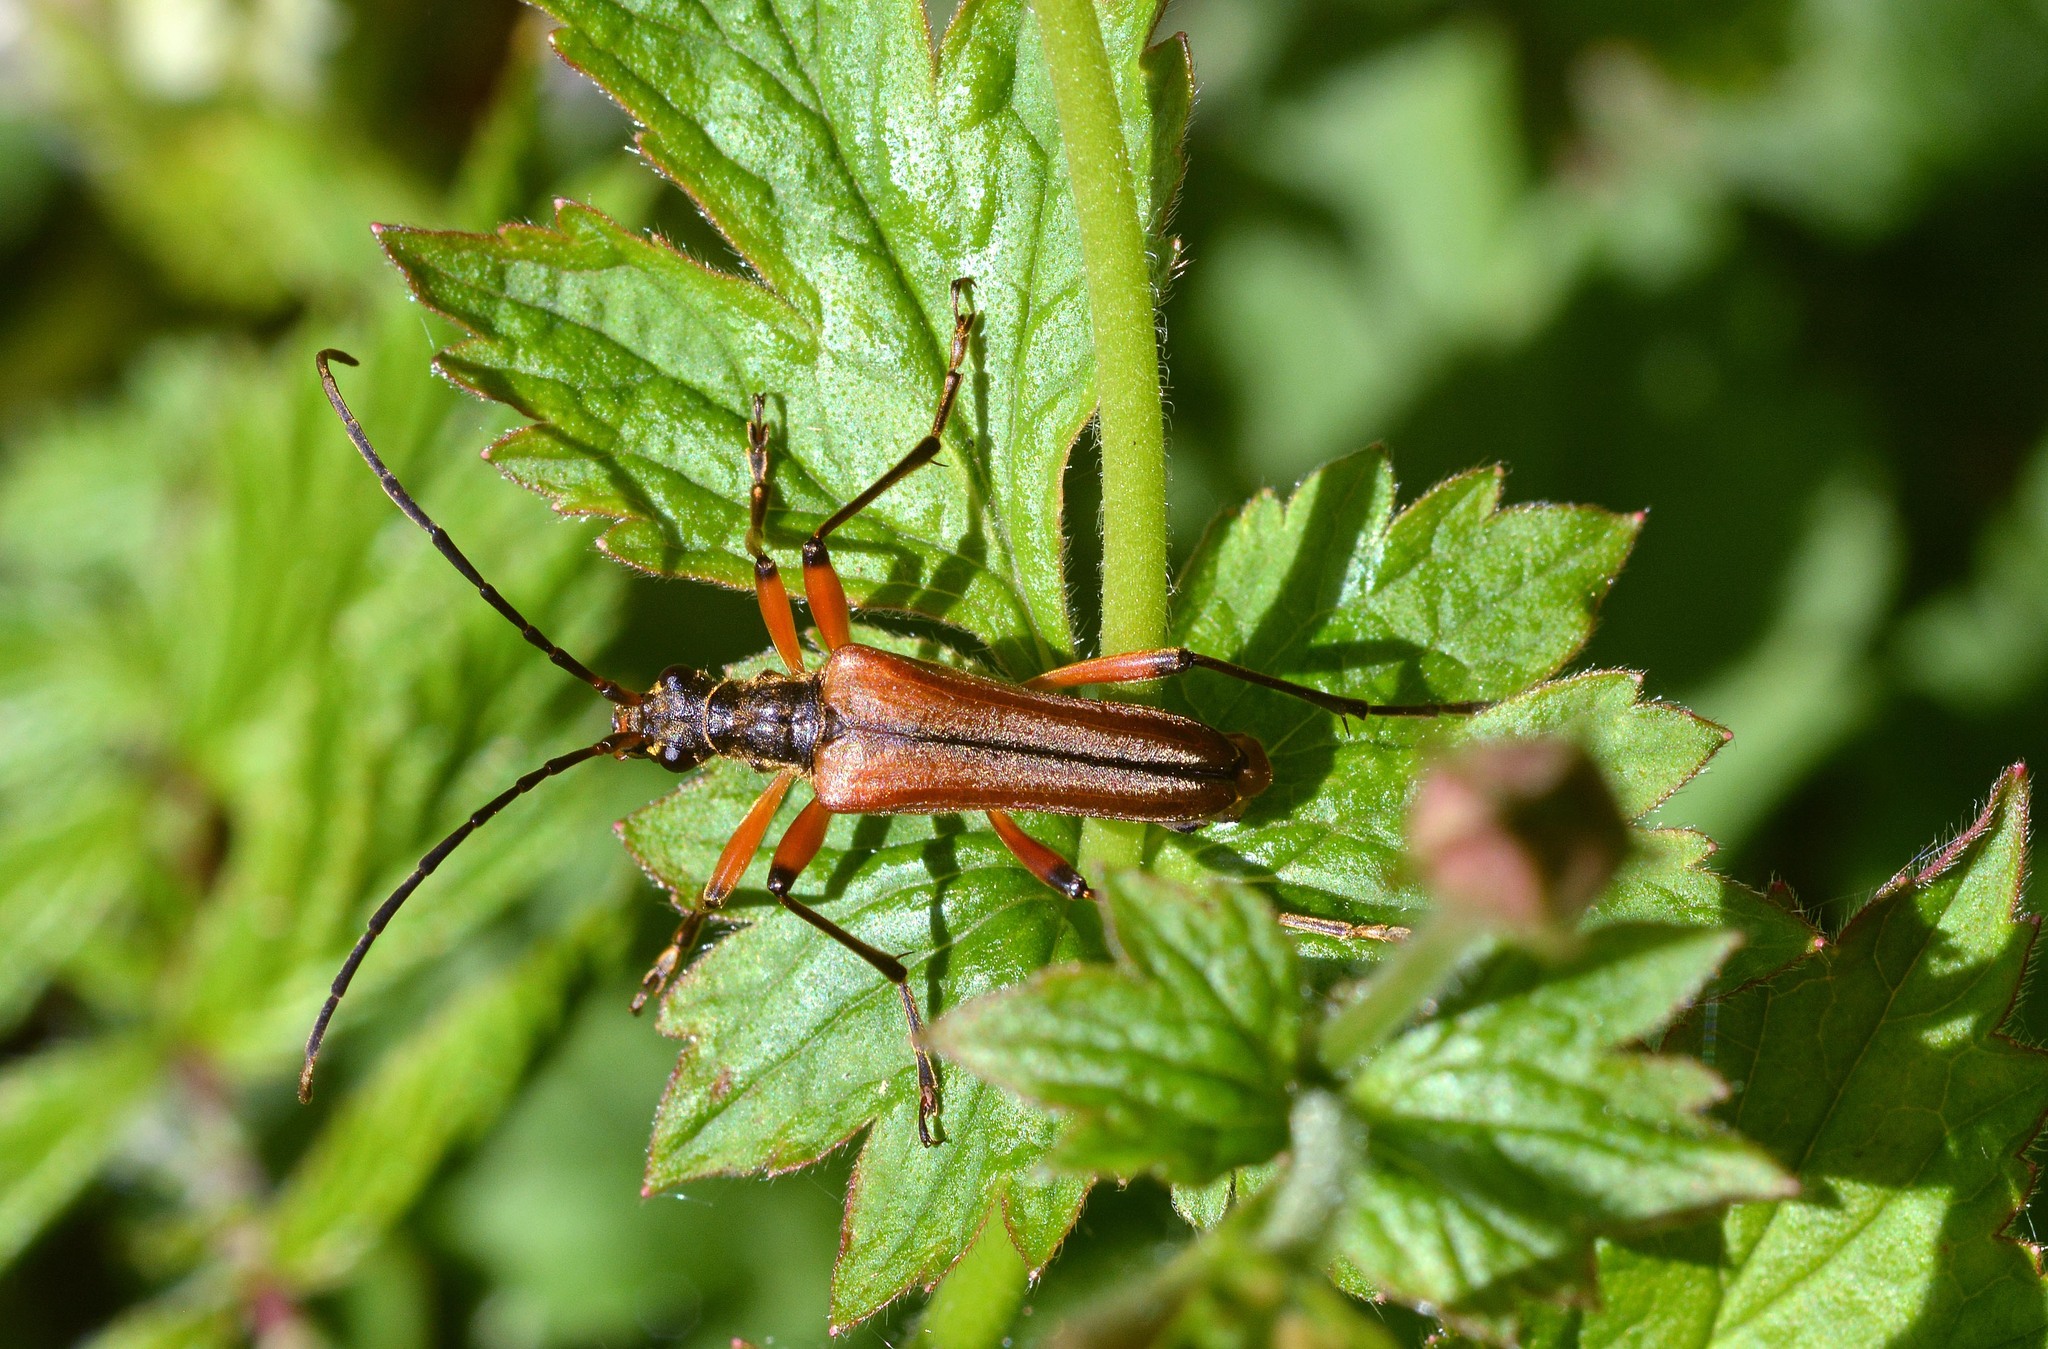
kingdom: Animalia
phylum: Arthropoda
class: Insecta
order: Coleoptera
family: Cerambycidae
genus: Stenocorus
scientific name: Stenocorus meridianus
